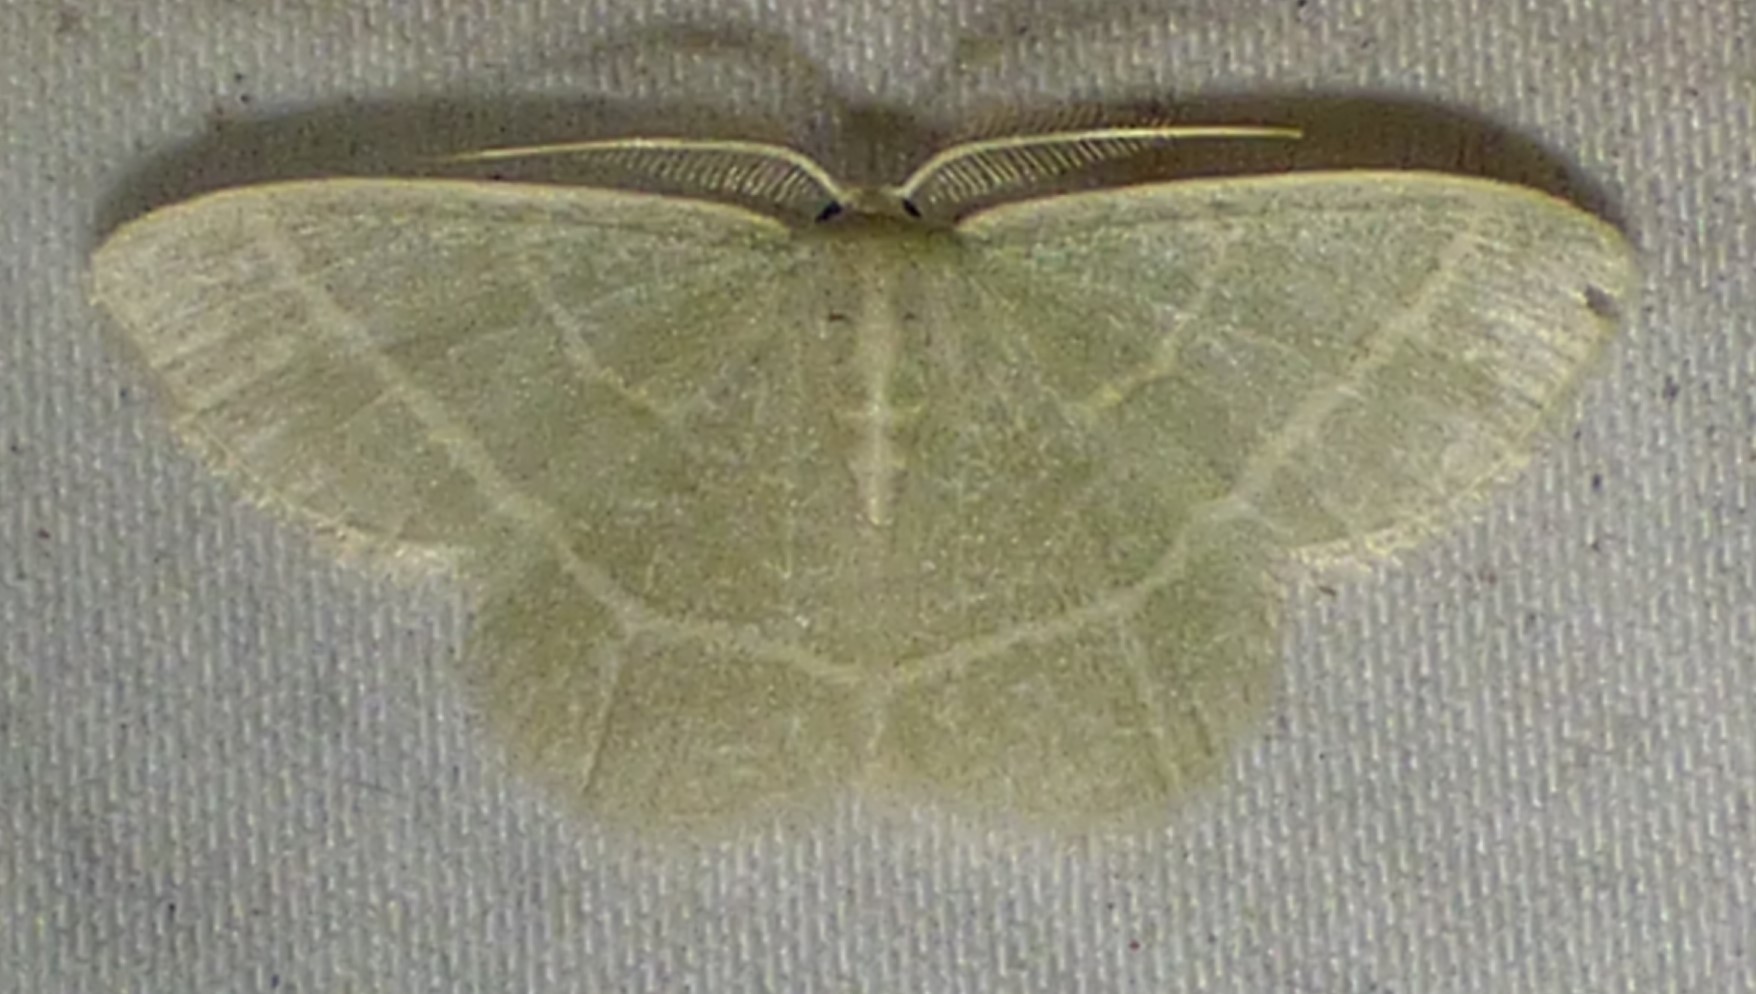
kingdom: Animalia
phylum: Arthropoda
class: Insecta
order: Lepidoptera
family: Geometridae
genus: Chlorochlamys
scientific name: Chlorochlamys chloroleucaria
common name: Blackberry looper
